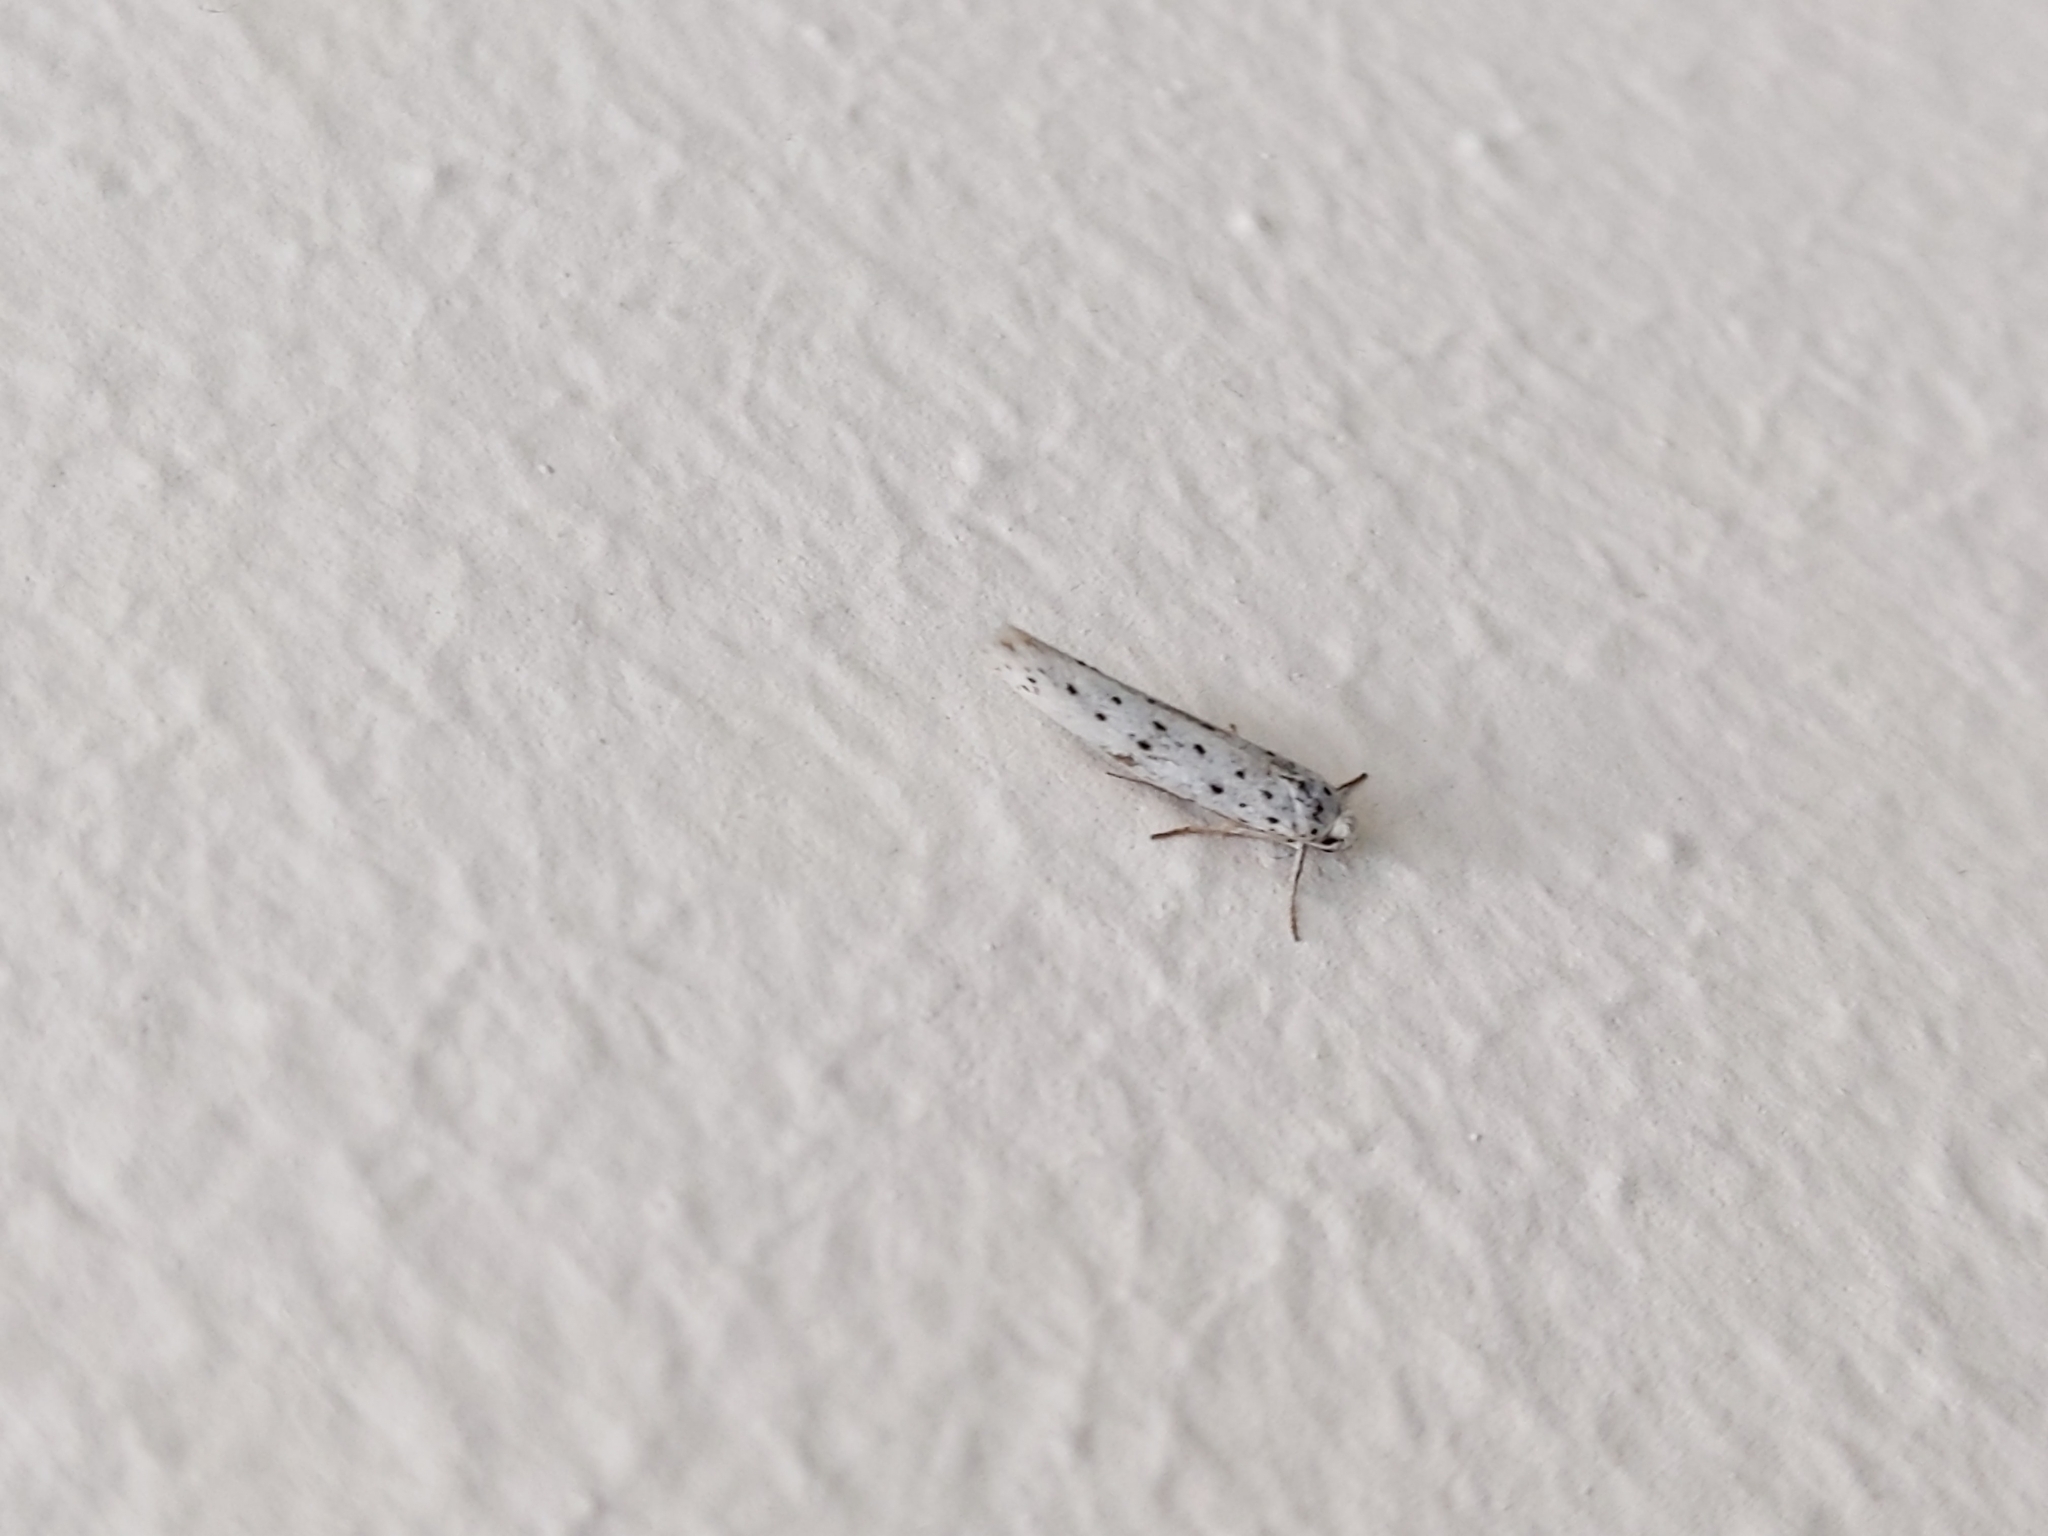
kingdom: Animalia
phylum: Arthropoda
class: Insecta
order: Lepidoptera
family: Yponomeutidae
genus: Yponomeuta
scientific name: Yponomeuta
